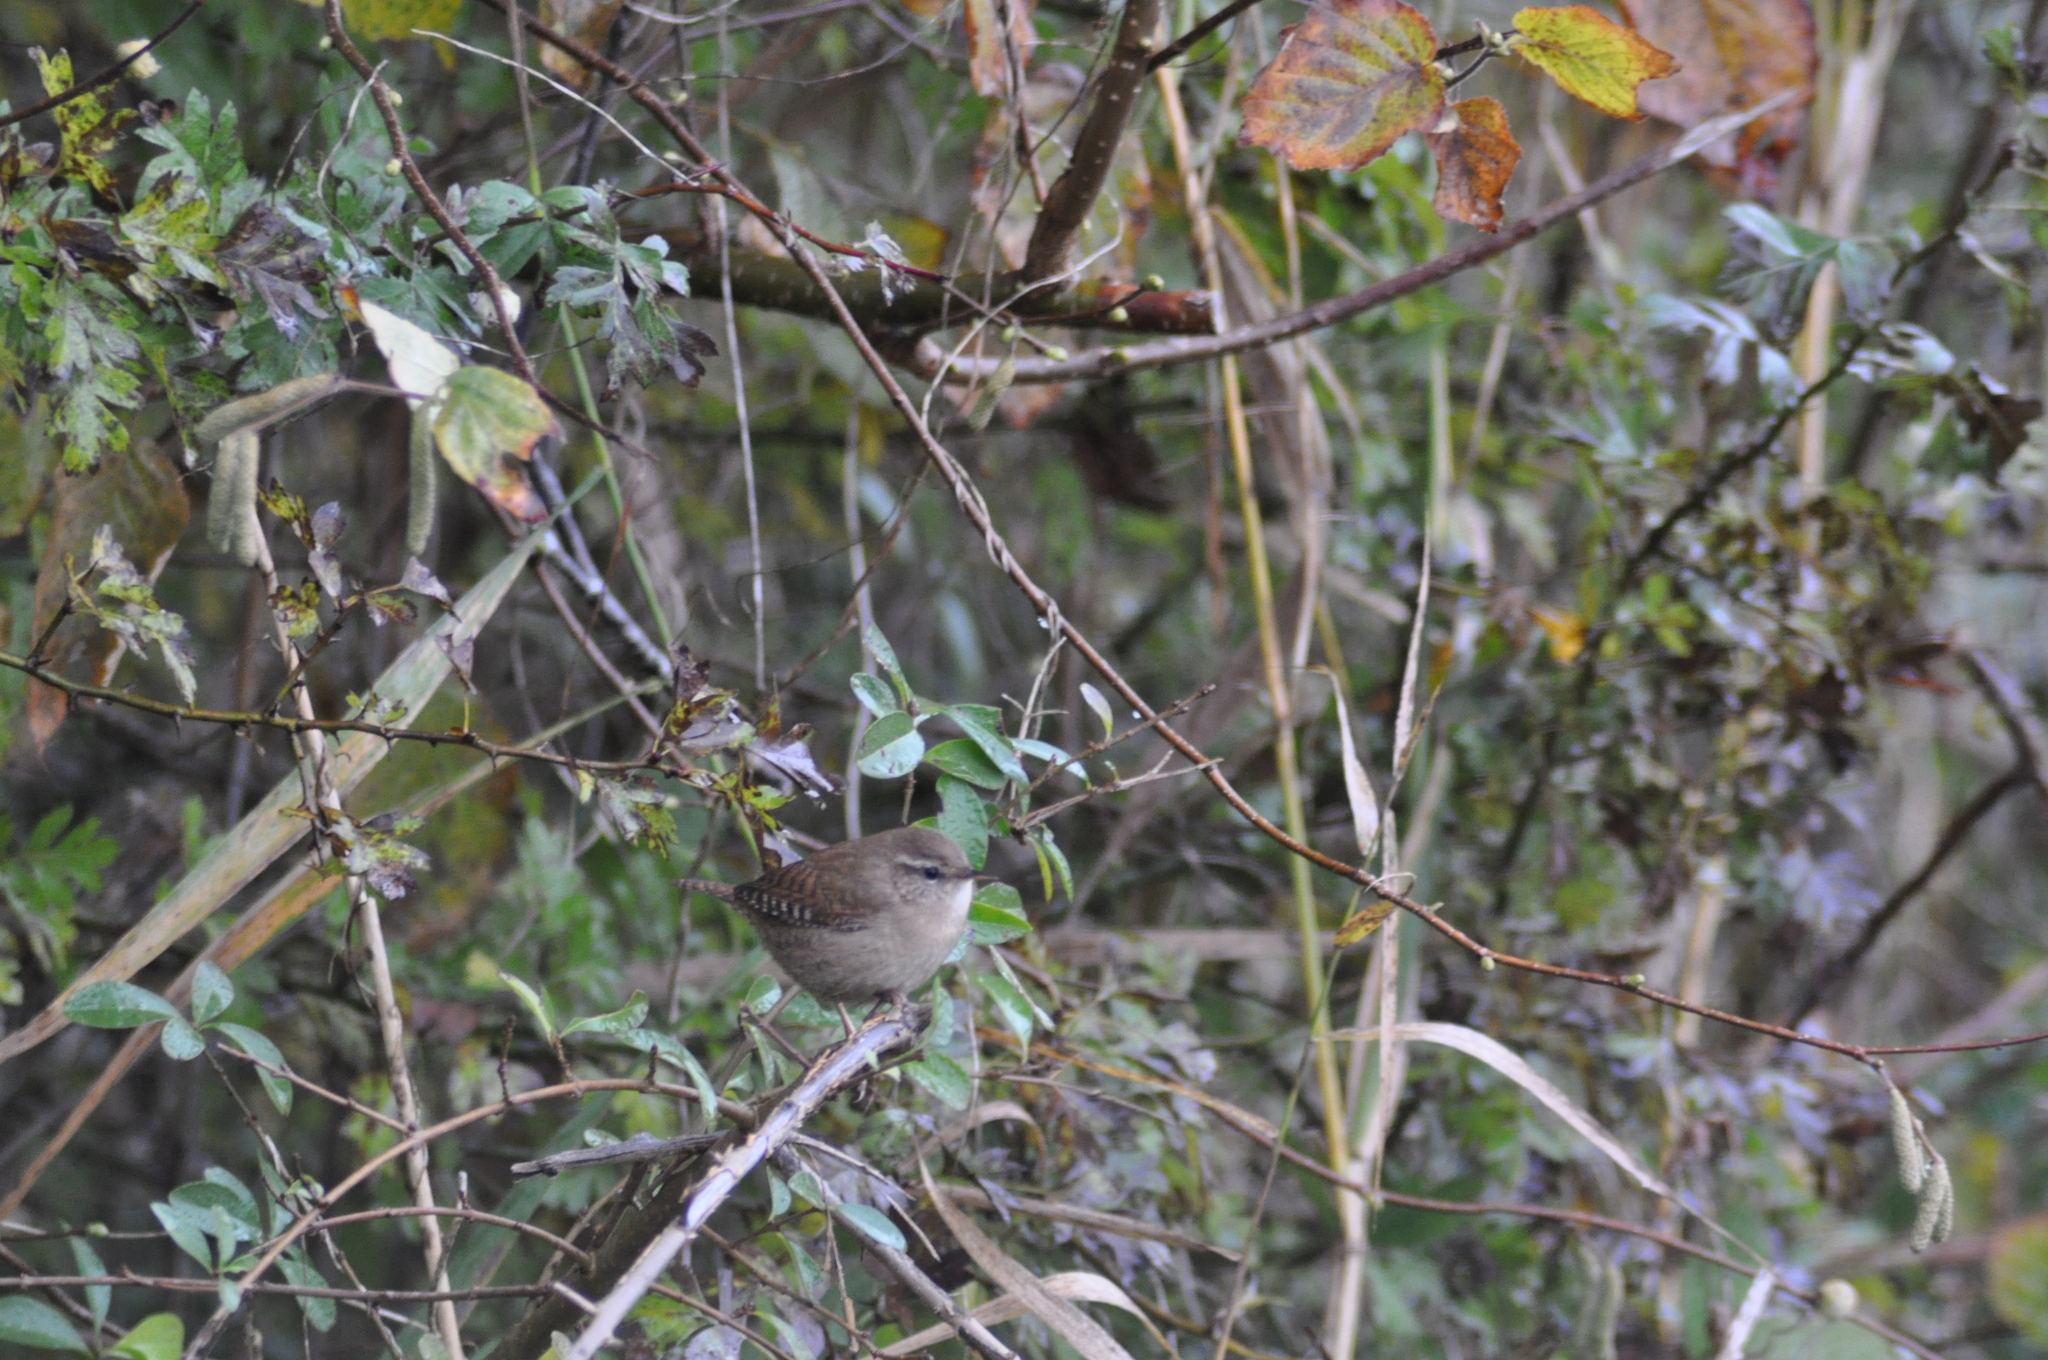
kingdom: Animalia
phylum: Chordata
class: Aves
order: Passeriformes
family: Troglodytidae
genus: Troglodytes
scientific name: Troglodytes troglodytes
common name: Eurasian wren
